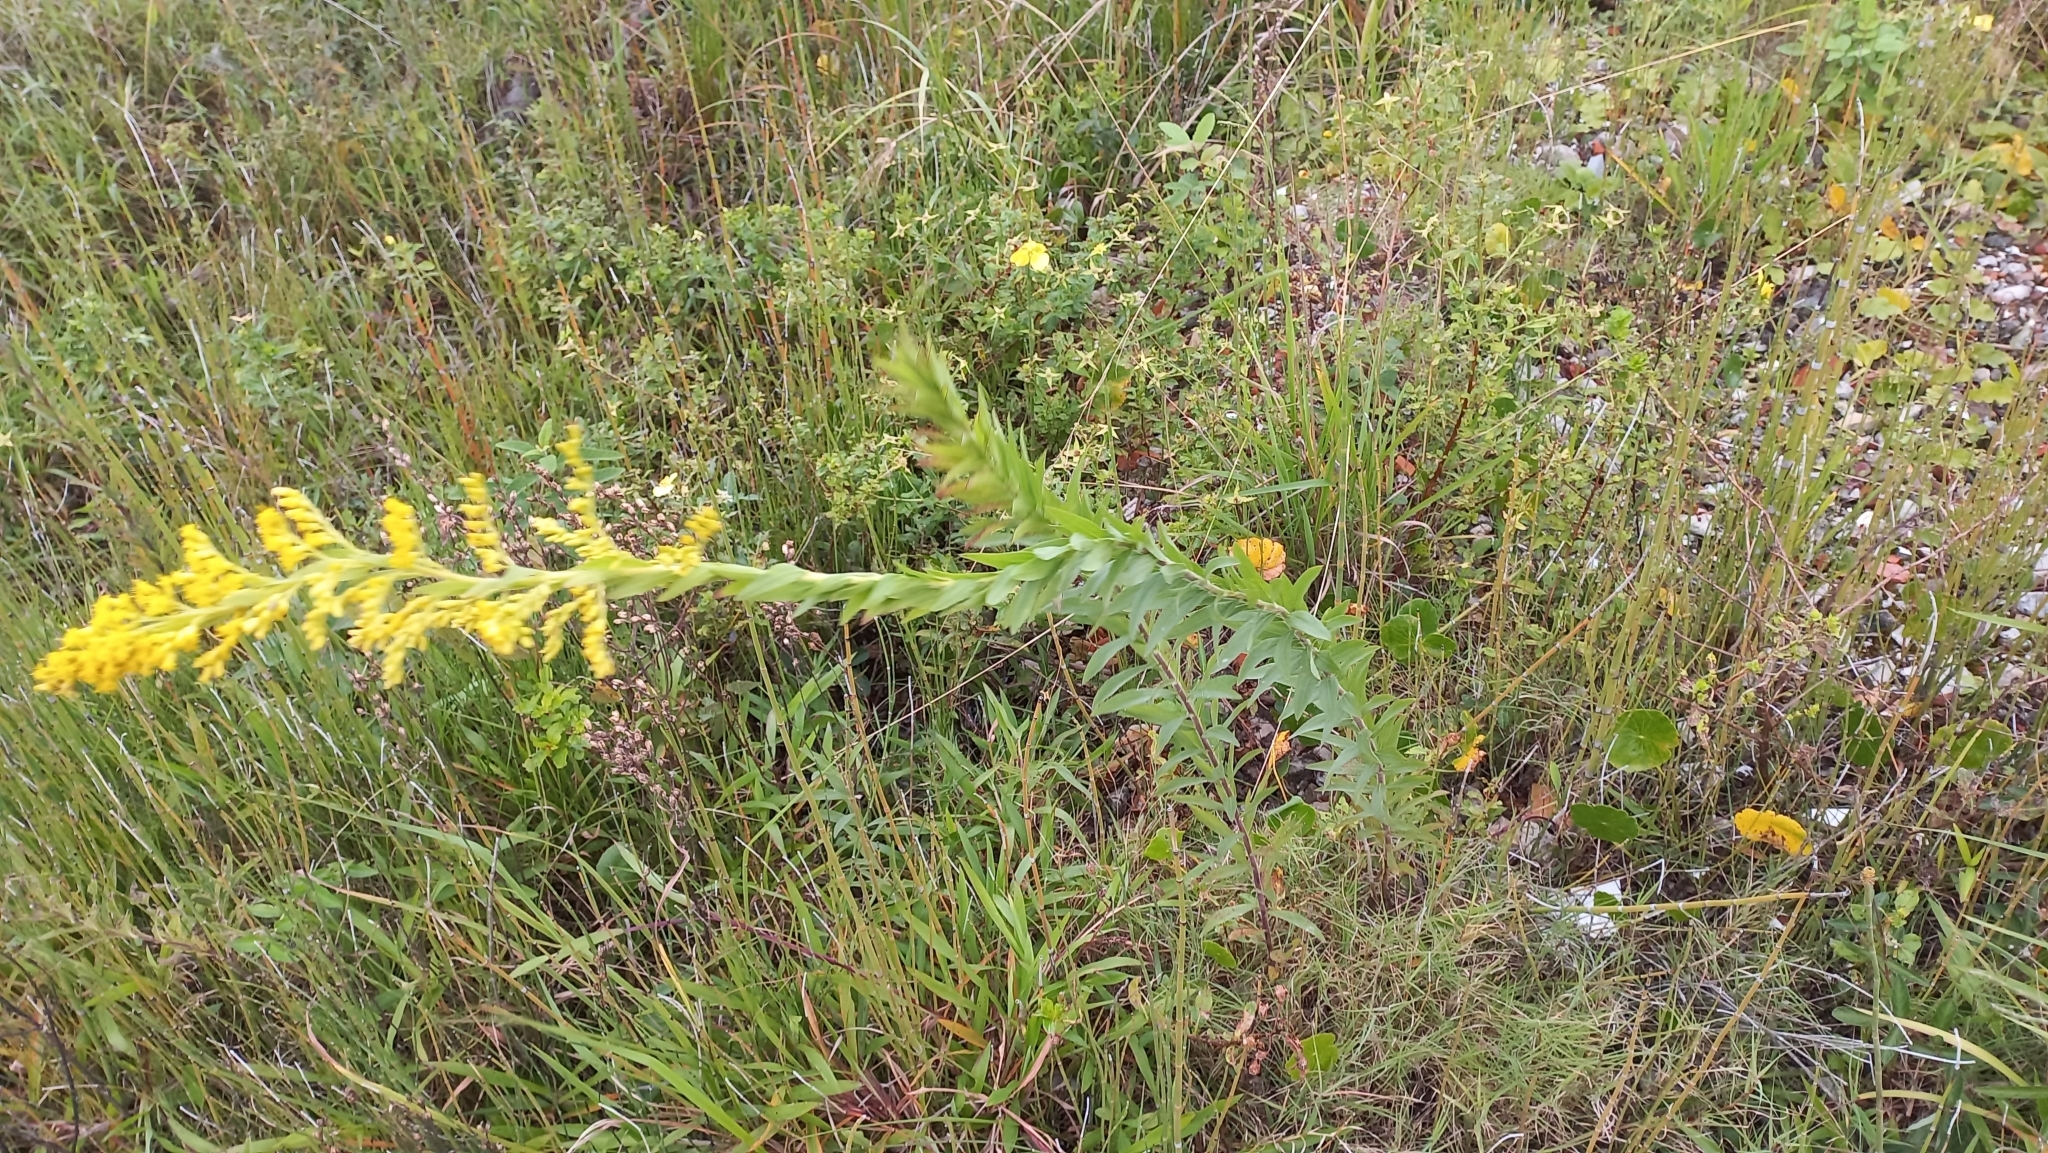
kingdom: Plantae
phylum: Tracheophyta
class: Magnoliopsida
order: Asterales
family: Asteraceae
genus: Solidago
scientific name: Solidago chilensis
